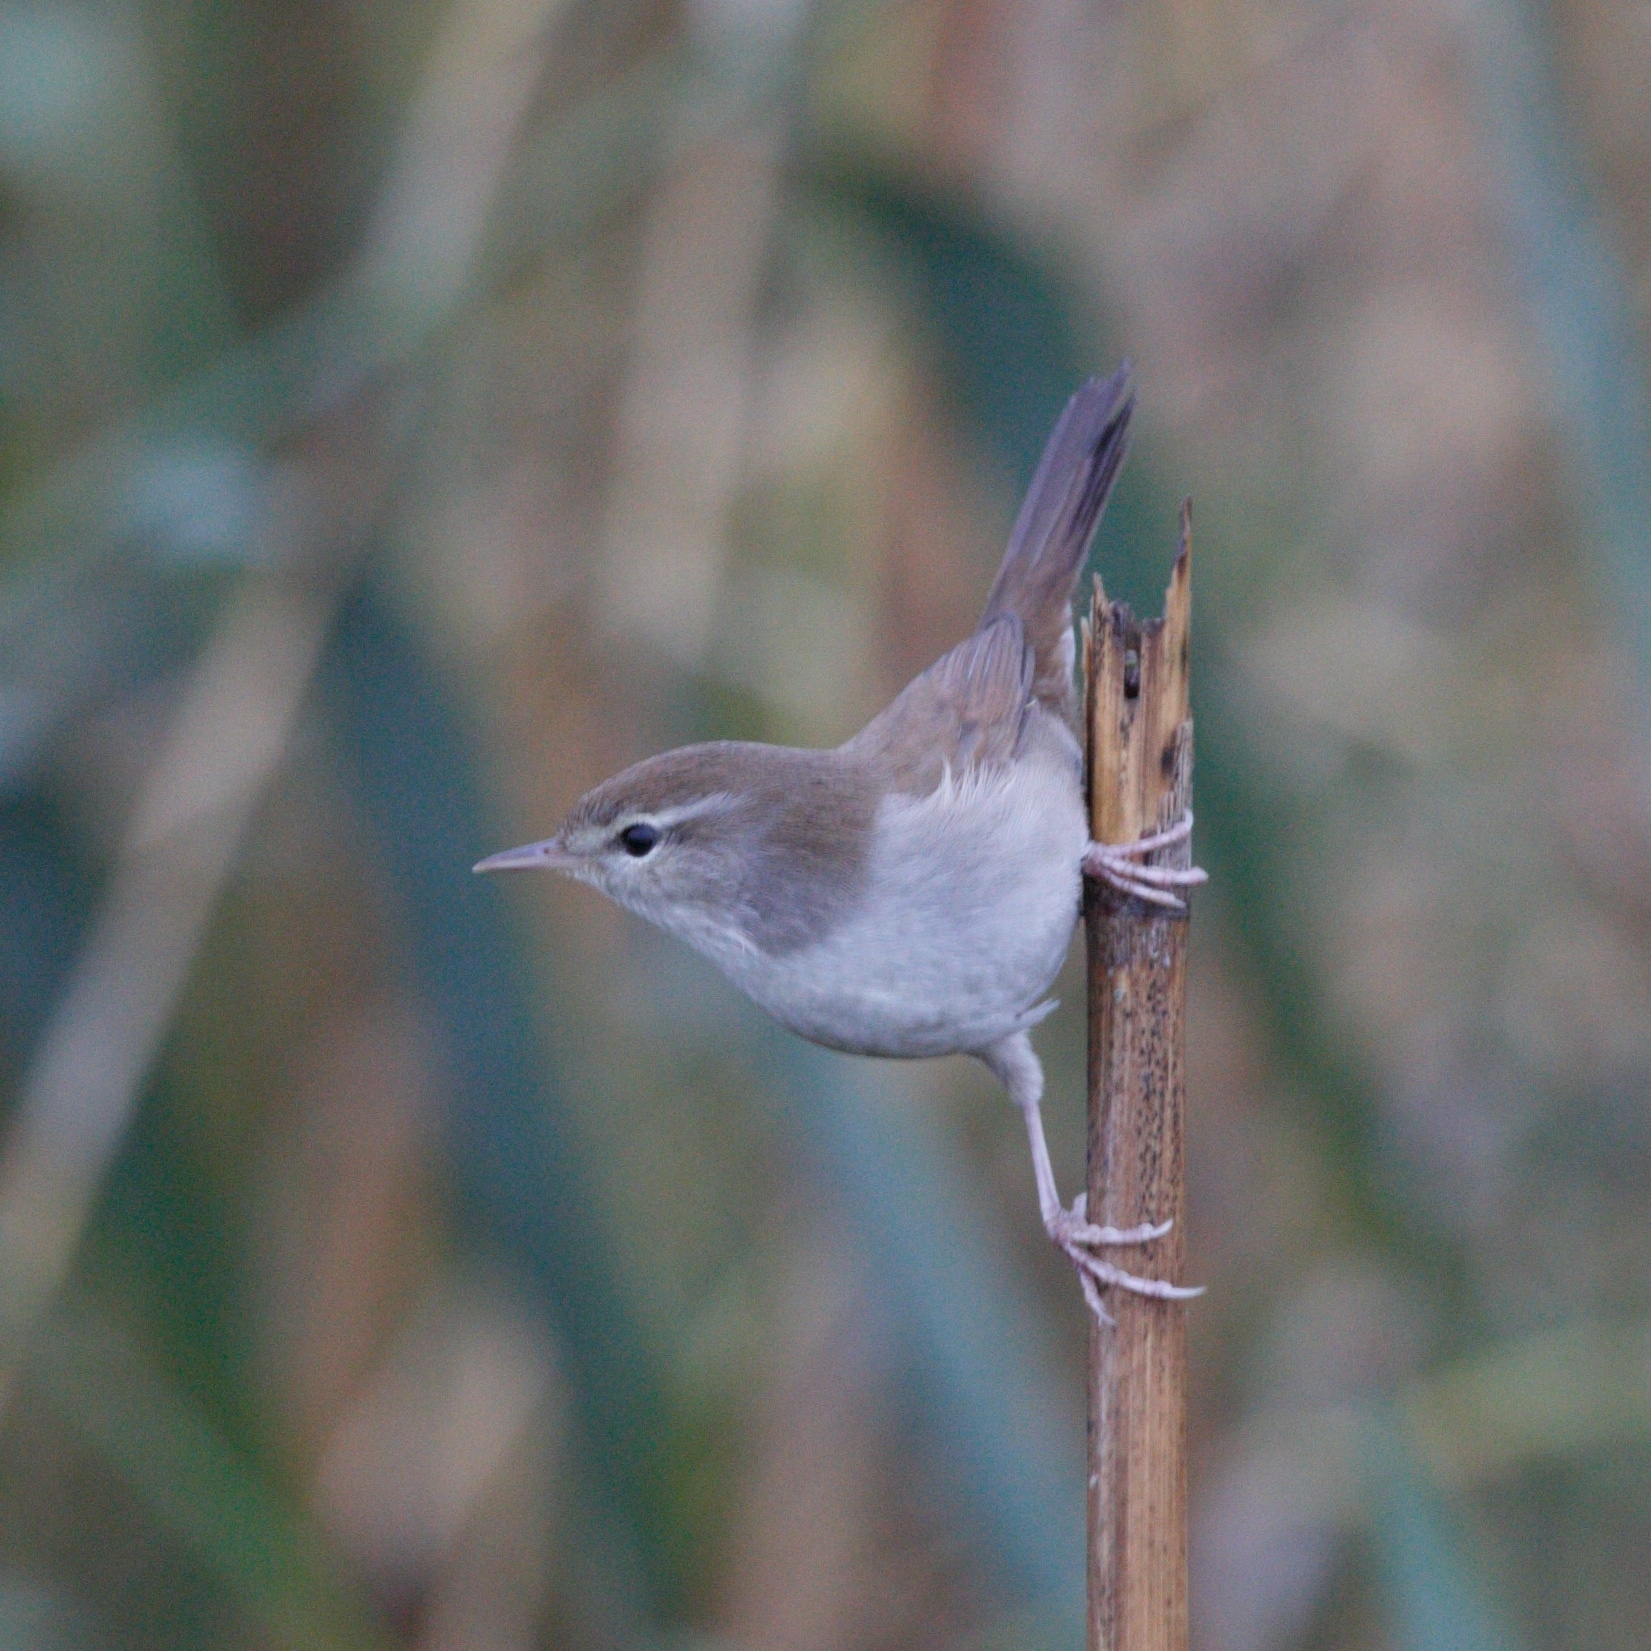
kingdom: Animalia
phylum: Chordata
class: Aves
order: Passeriformes
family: Cettiidae
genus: Cettia
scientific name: Cettia cetti
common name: Cetti's warbler
